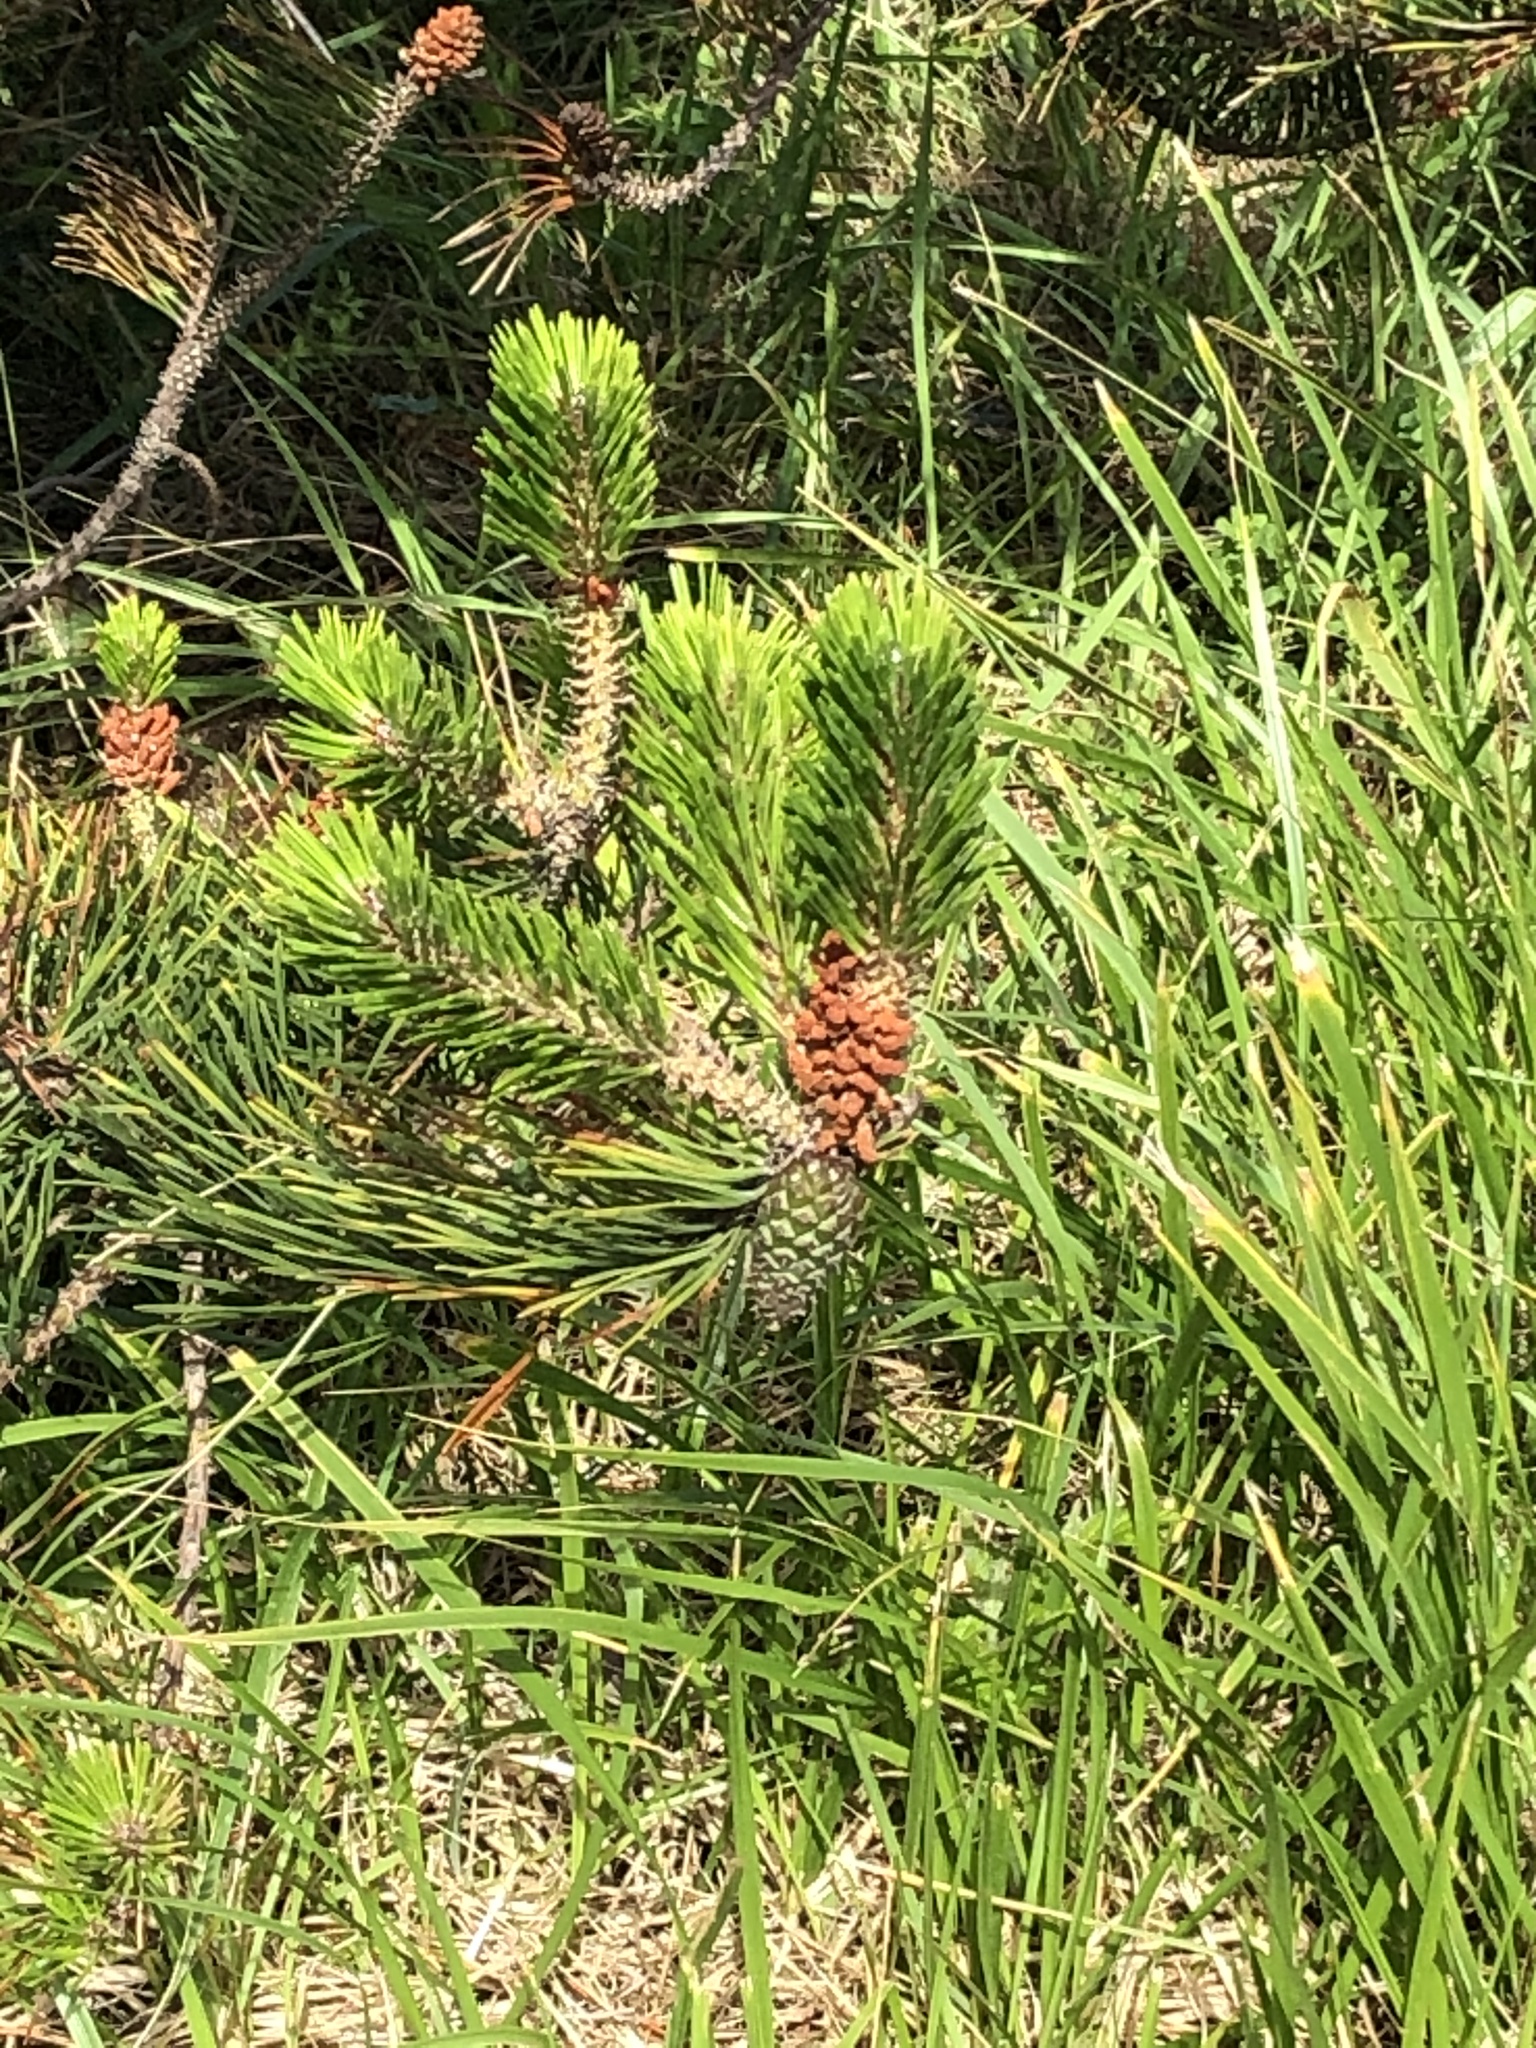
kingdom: Plantae
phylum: Tracheophyta
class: Pinopsida
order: Pinales
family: Pinaceae
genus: Pinus
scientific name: Pinus contorta
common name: Lodgepole pine
